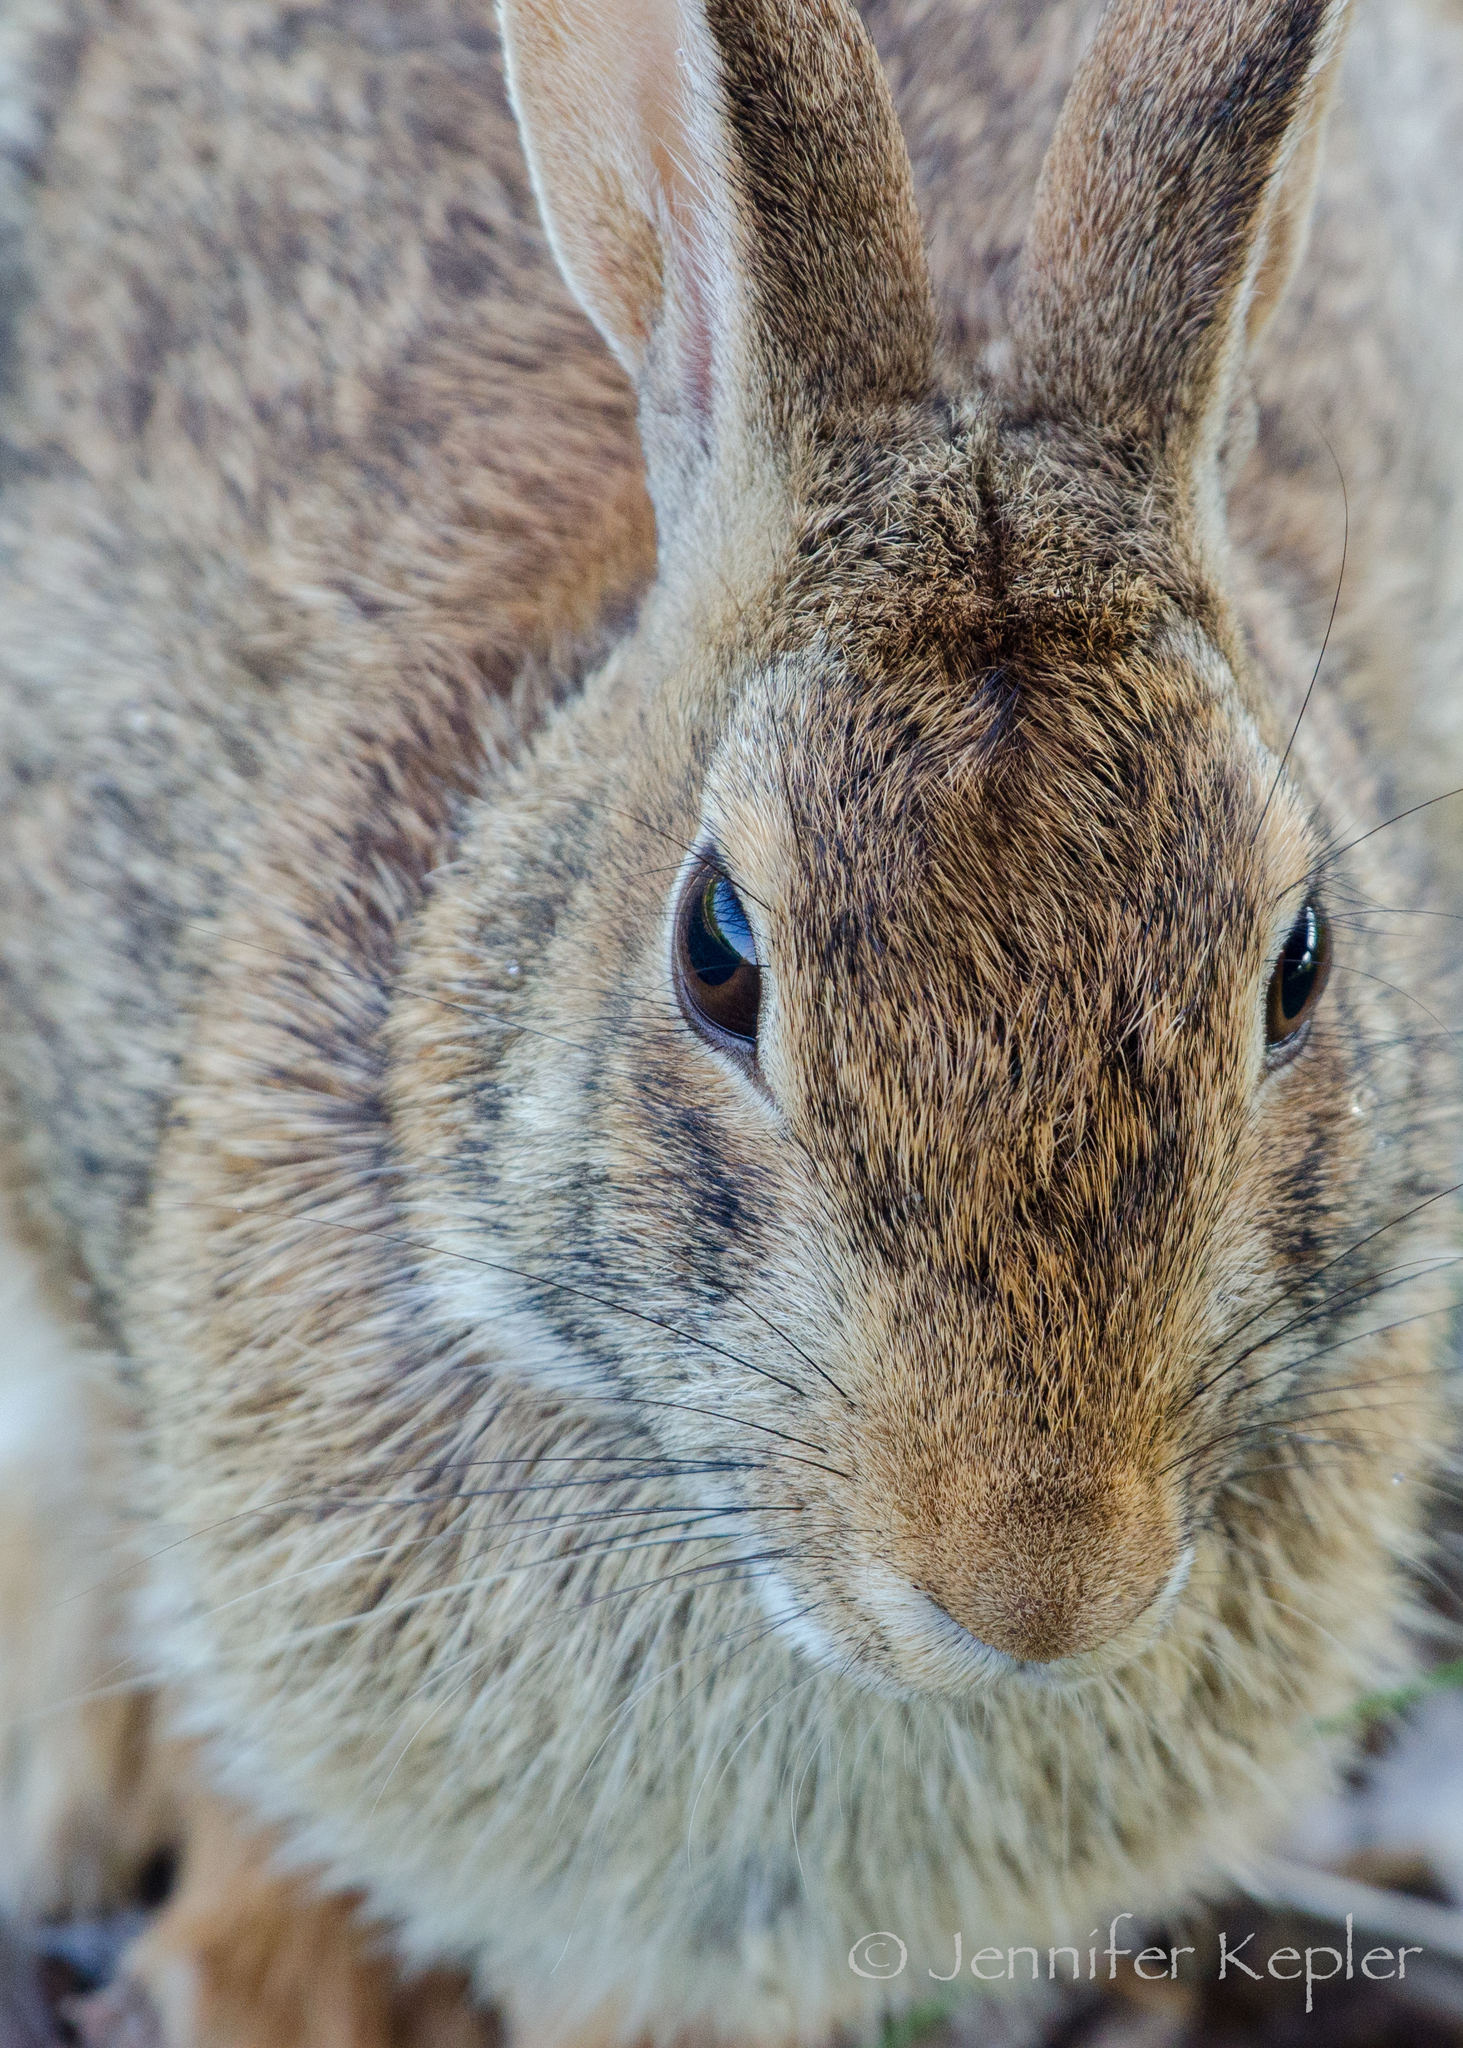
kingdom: Animalia
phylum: Chordata
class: Mammalia
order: Lagomorpha
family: Leporidae
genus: Sylvilagus
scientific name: Sylvilagus floridanus
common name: Eastern cottontail
